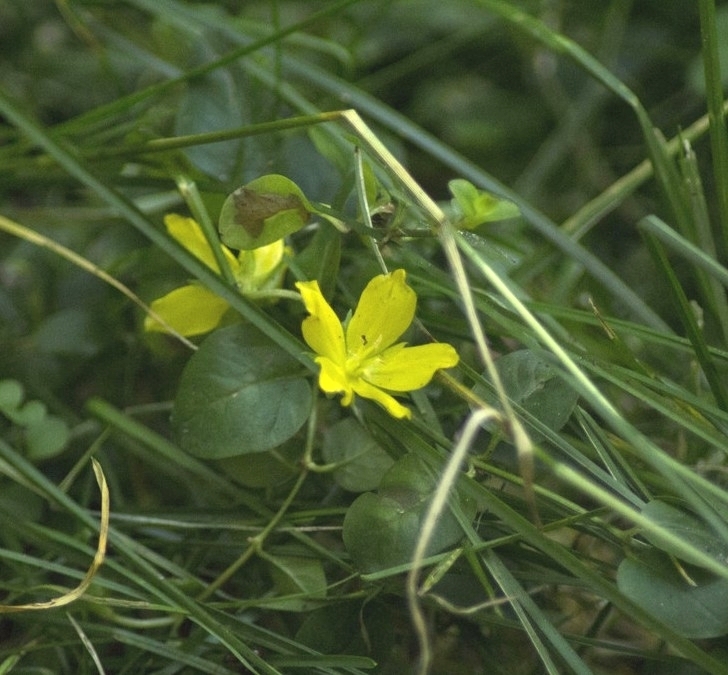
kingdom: Plantae
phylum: Tracheophyta
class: Magnoliopsida
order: Ericales
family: Primulaceae
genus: Lysimachia
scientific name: Lysimachia nummularia
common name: Moneywort
